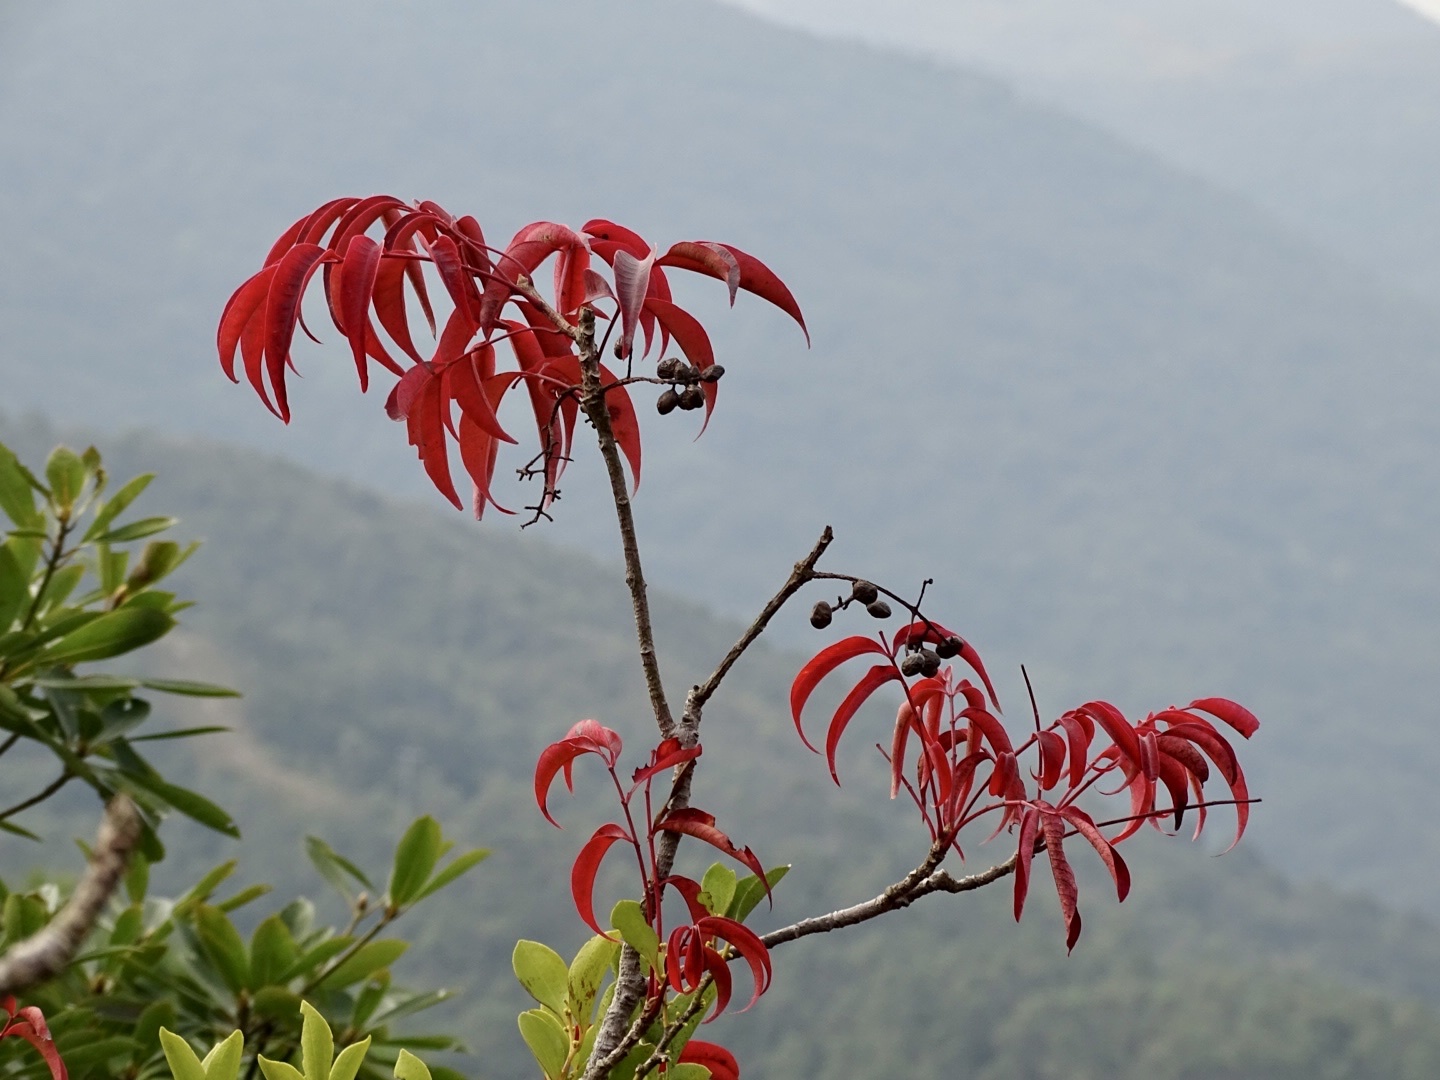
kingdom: Plantae
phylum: Tracheophyta
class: Magnoliopsida
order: Sapindales
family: Anacardiaceae
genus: Toxicodendron
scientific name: Toxicodendron succedaneum
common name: Wax tree
